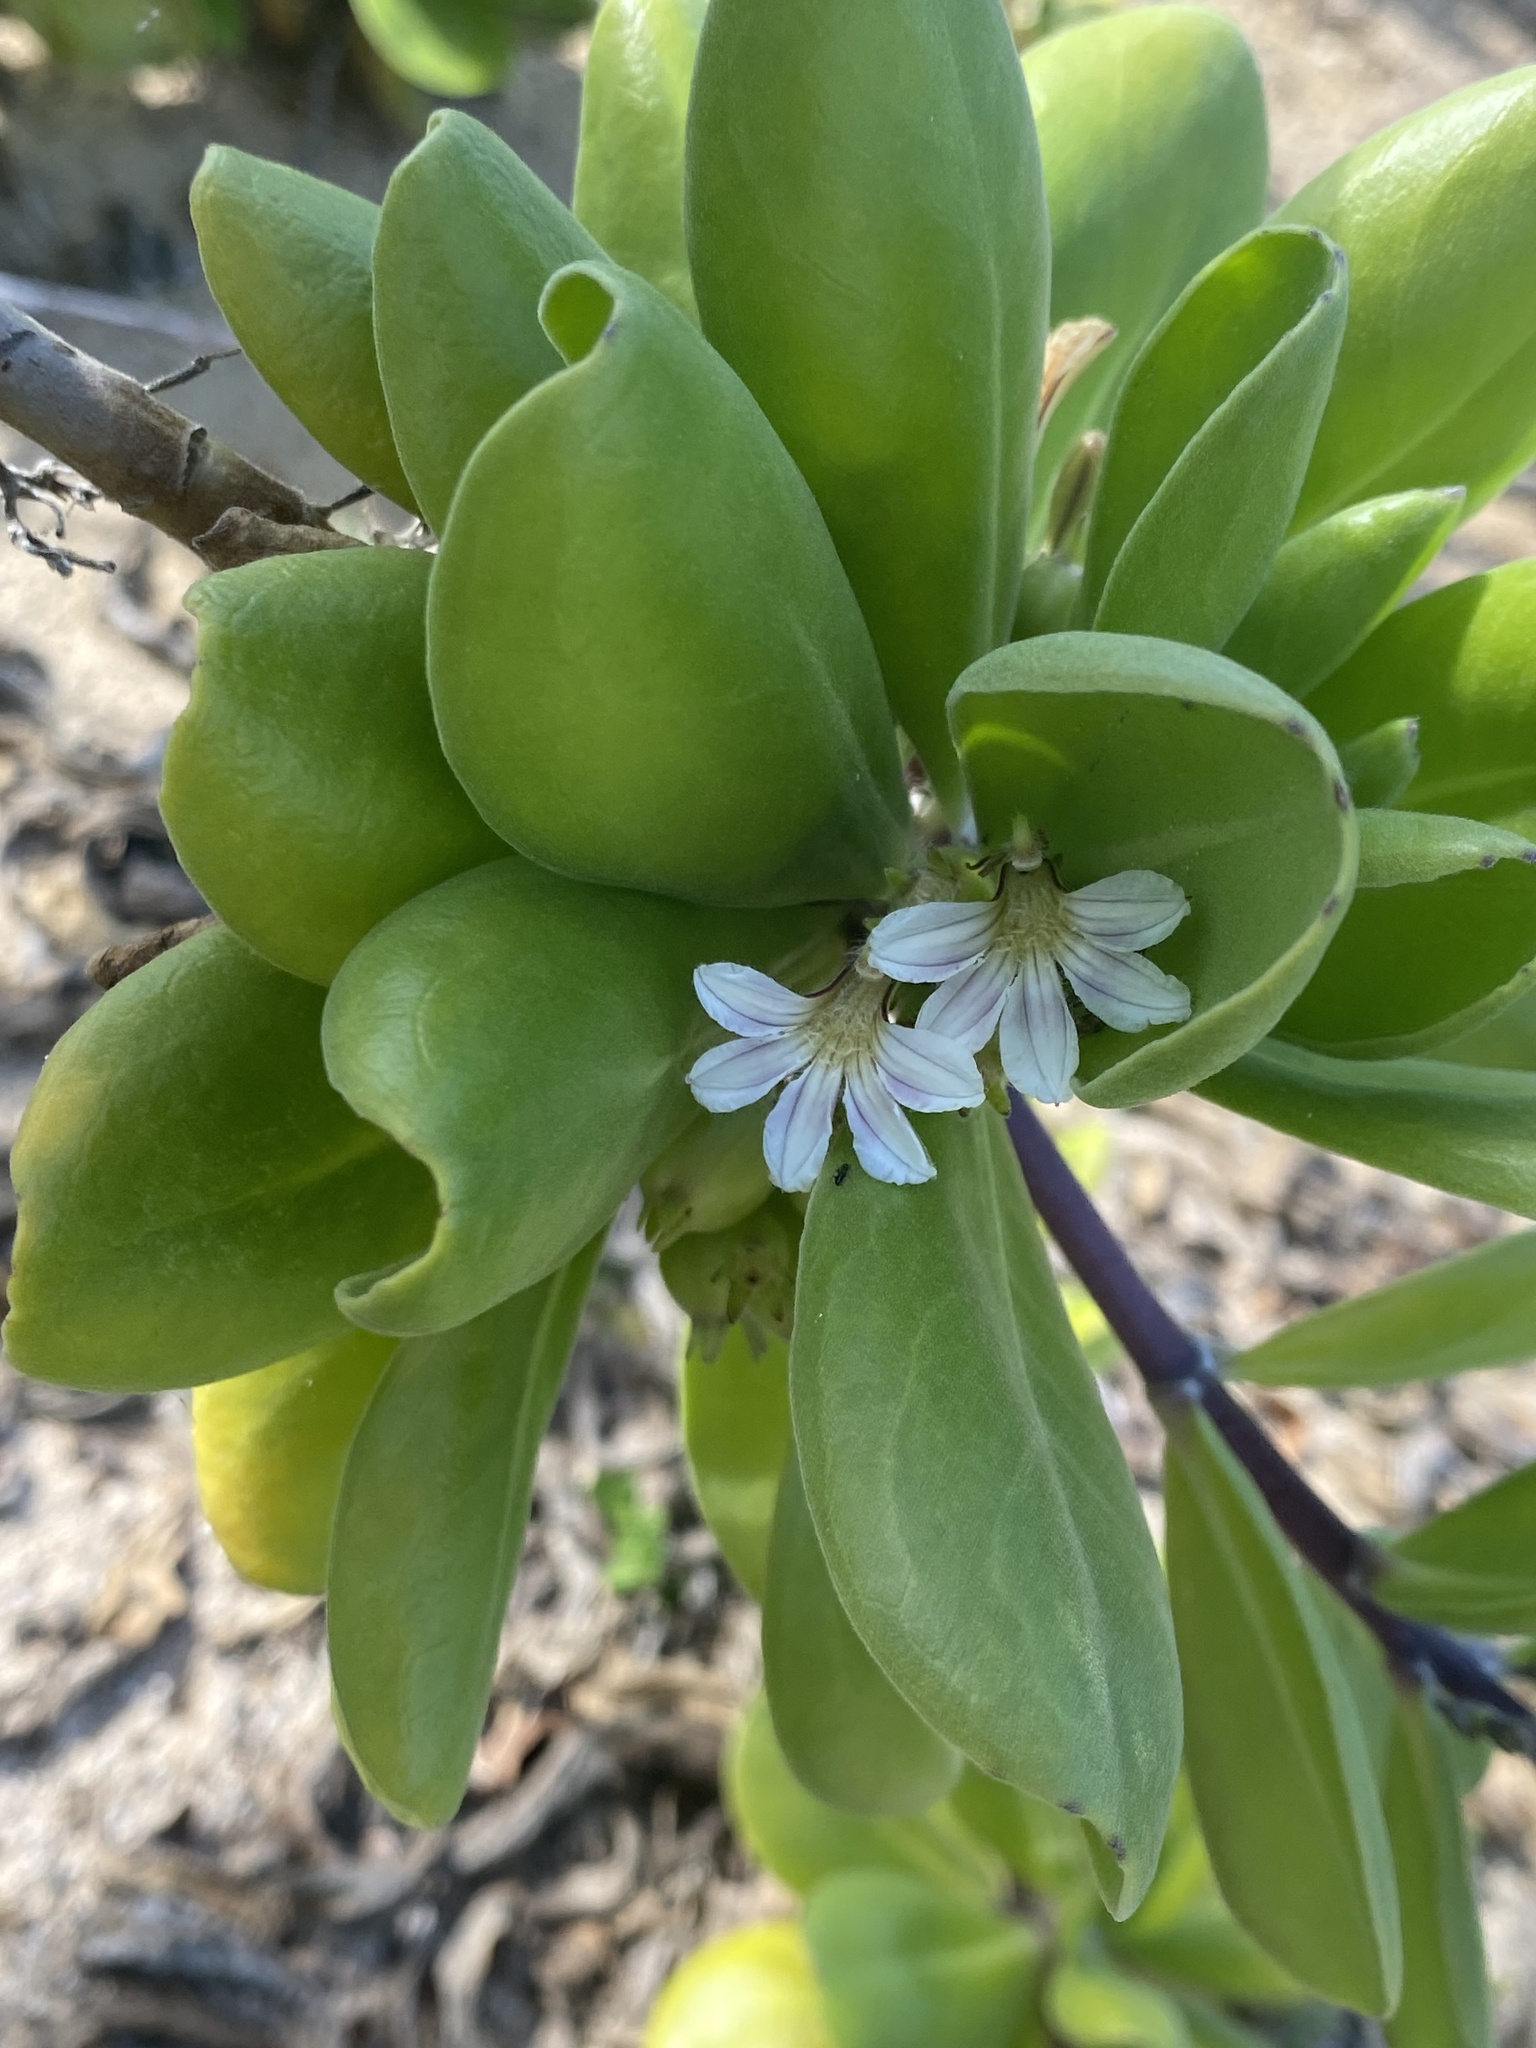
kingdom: Plantae
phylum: Tracheophyta
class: Magnoliopsida
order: Asterales
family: Goodeniaceae
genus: Scaevola
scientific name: Scaevola taccada
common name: Sea lettucetree
